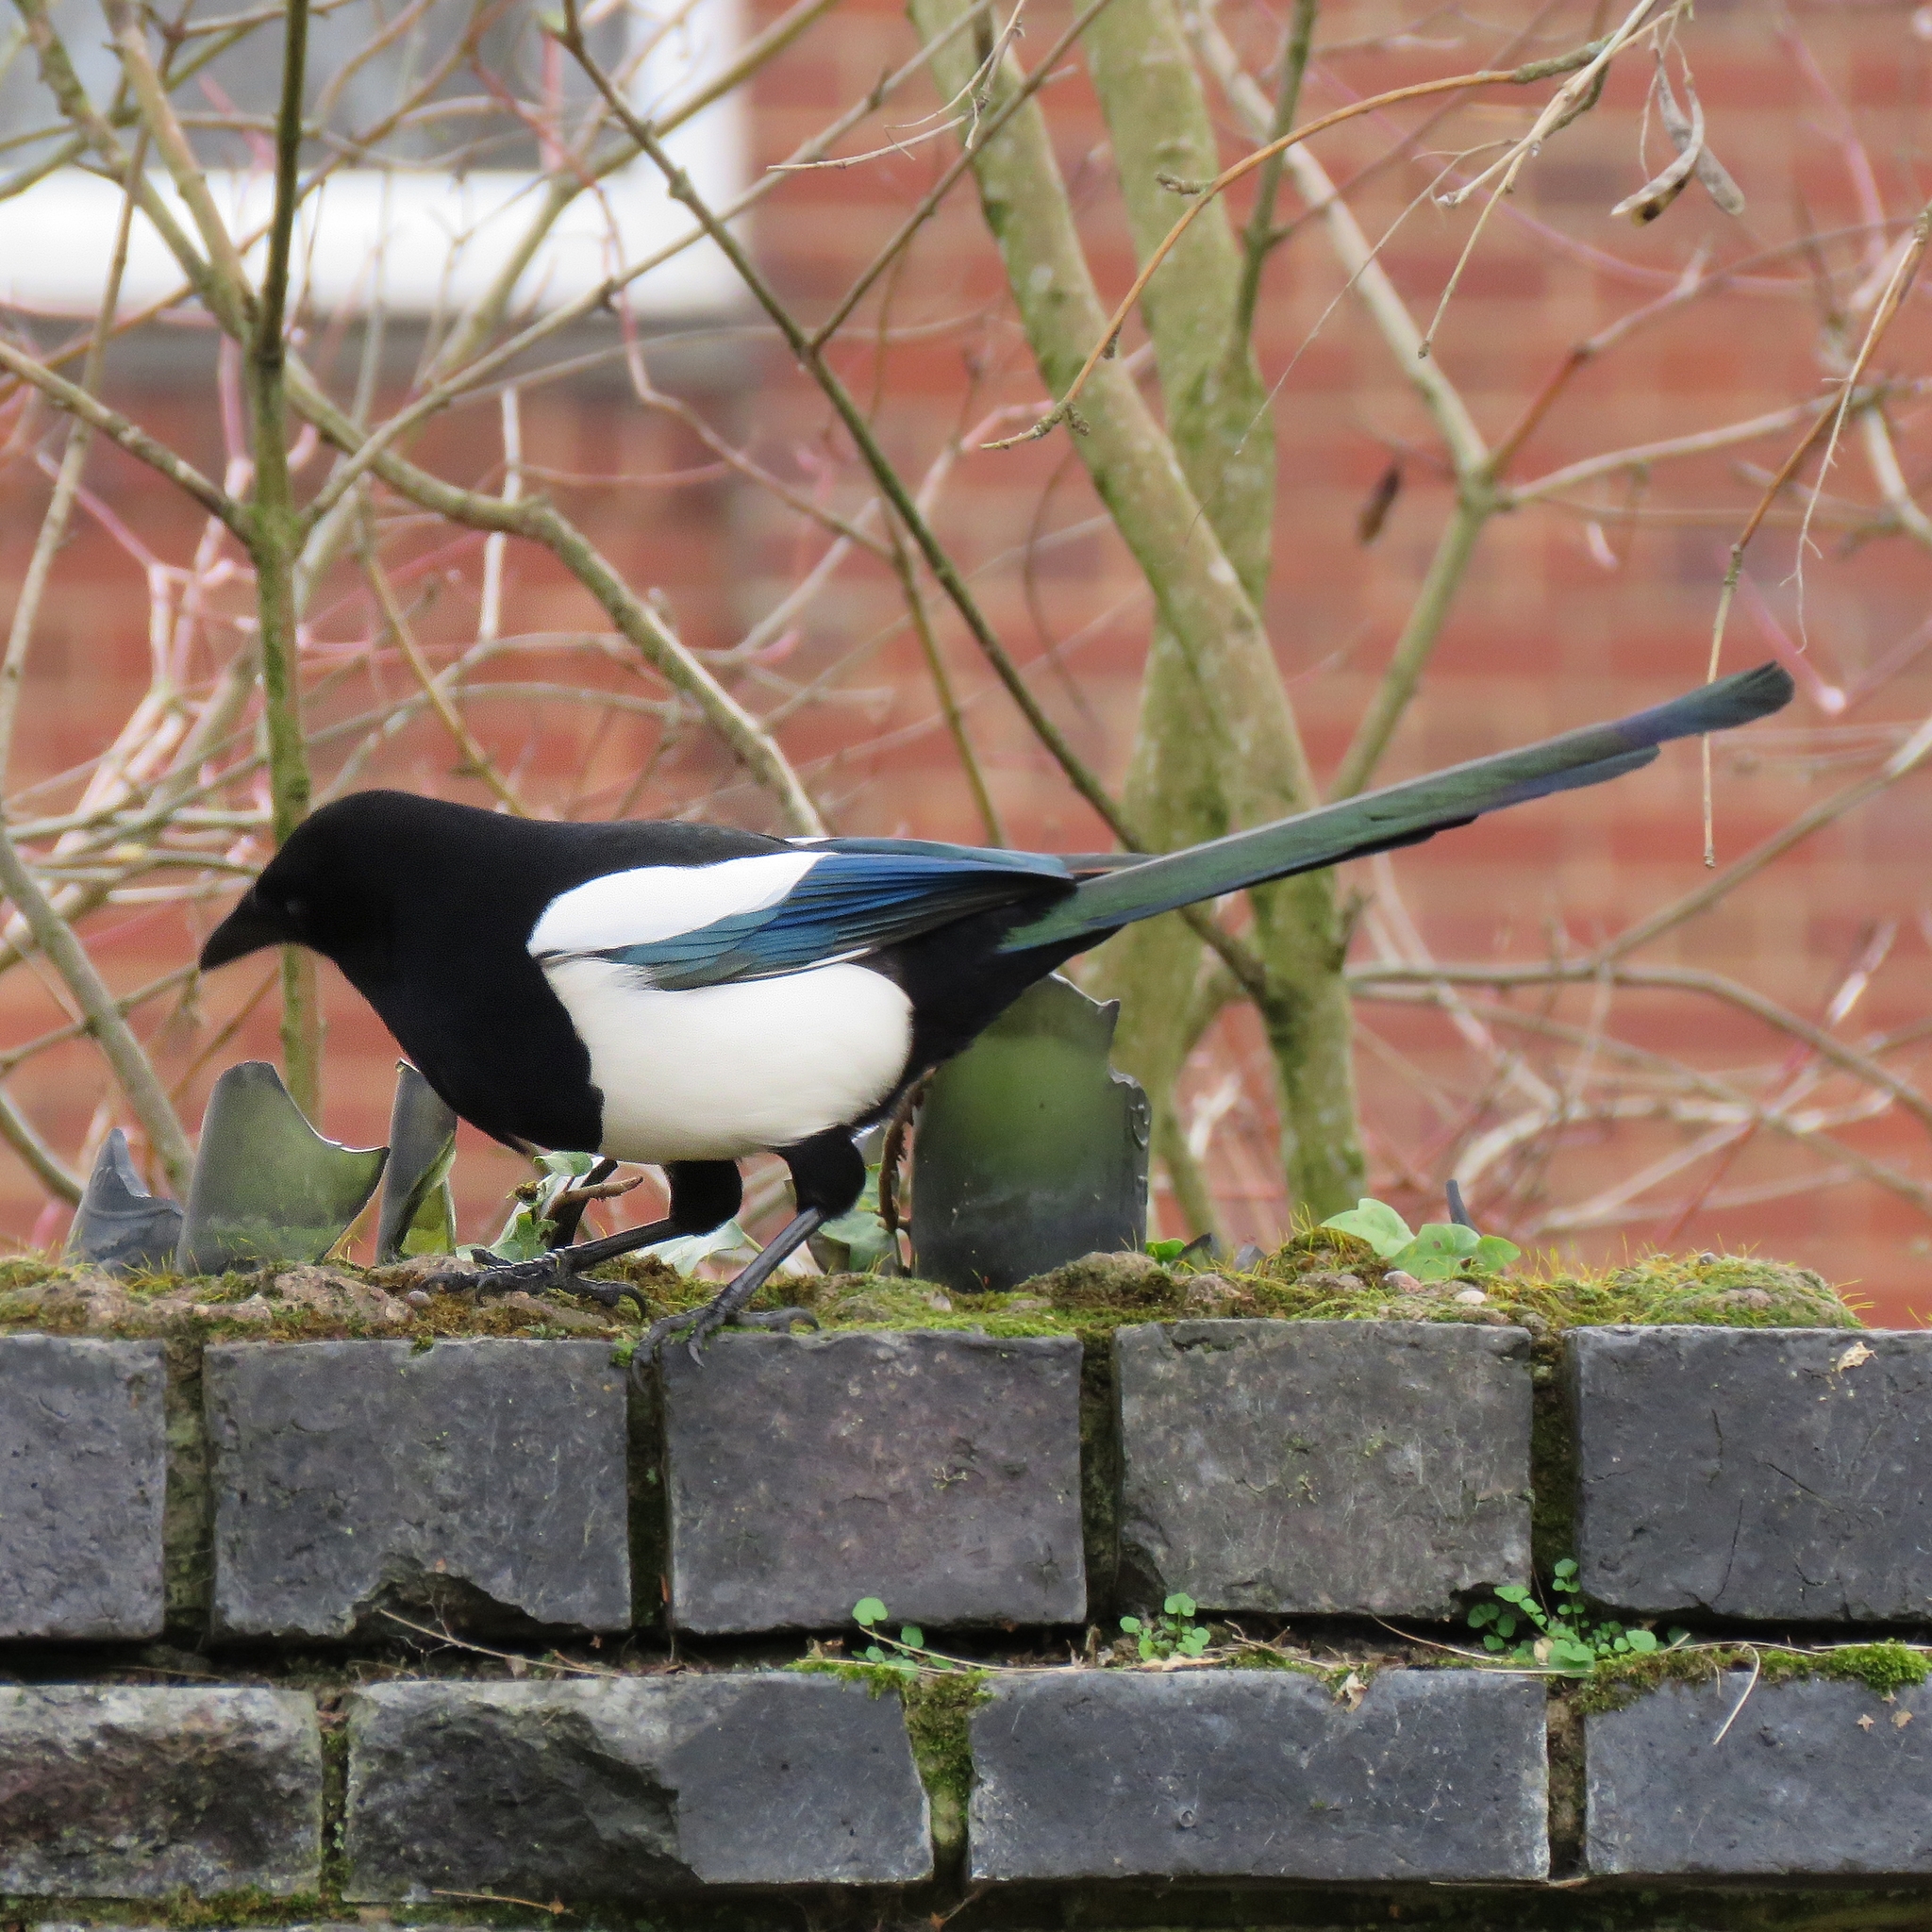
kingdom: Animalia
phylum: Chordata
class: Aves
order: Passeriformes
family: Corvidae
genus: Pica
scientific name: Pica pica
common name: Eurasian magpie
